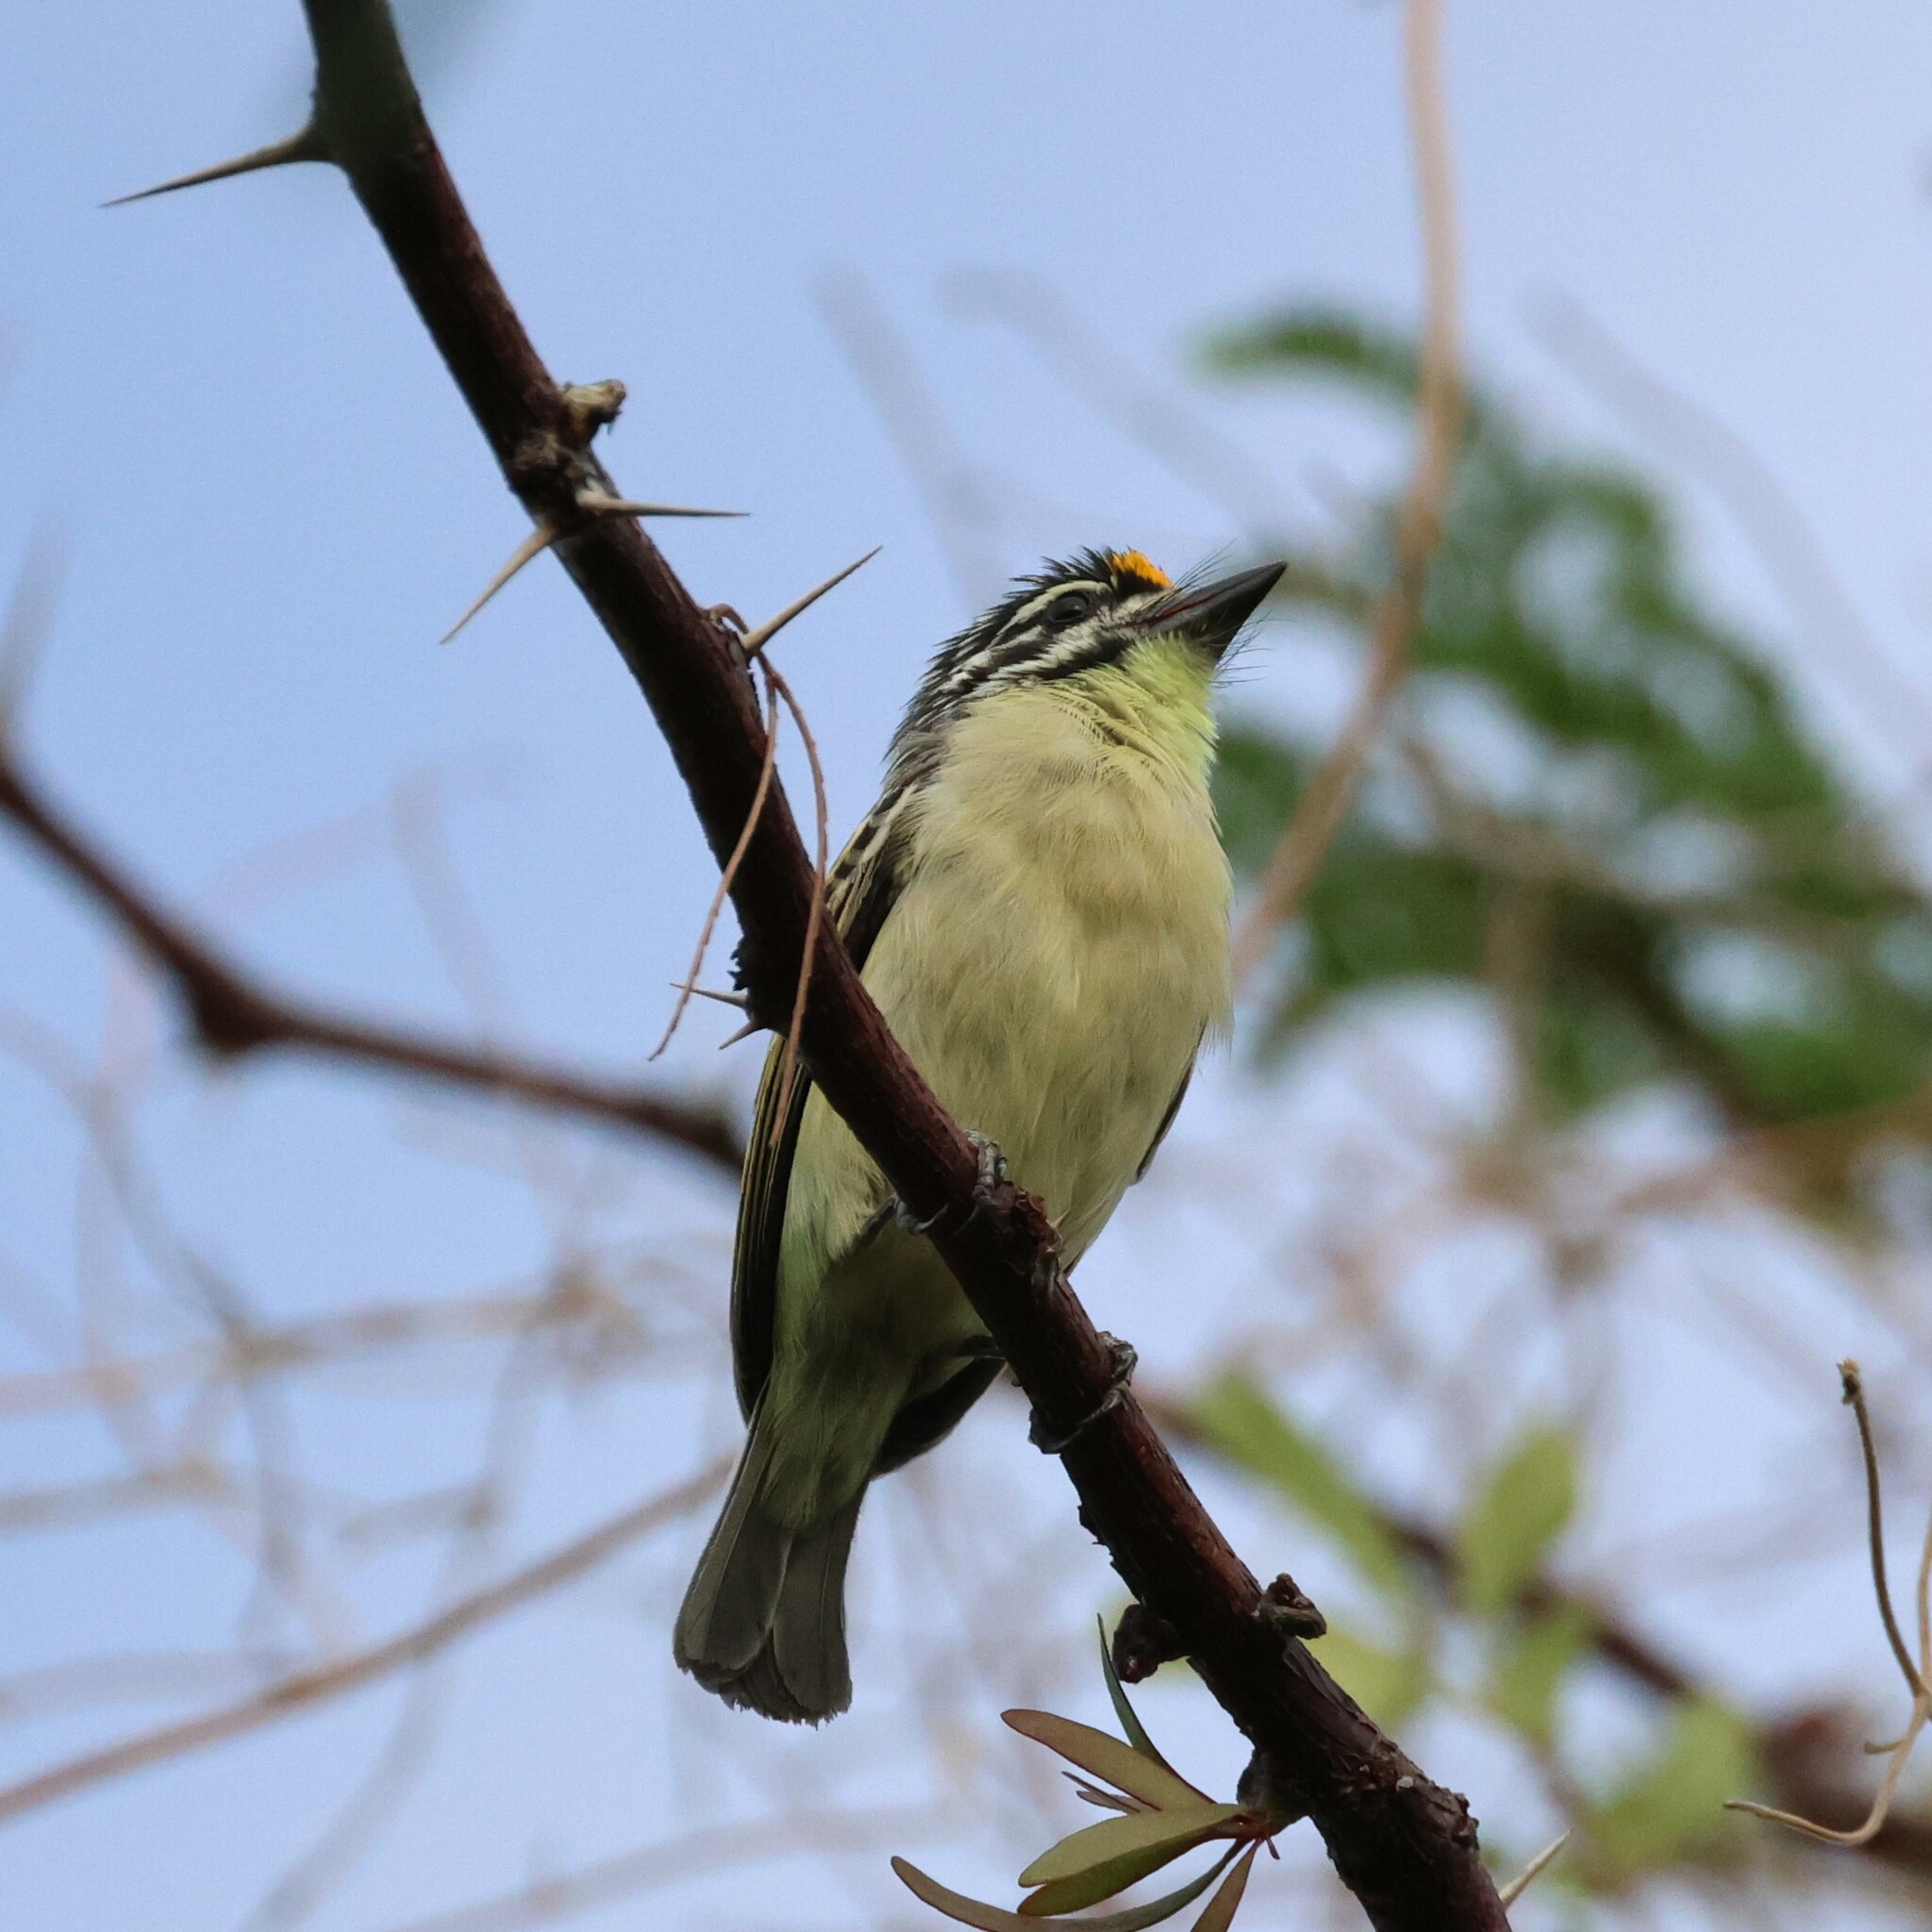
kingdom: Animalia
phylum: Chordata
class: Aves
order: Piciformes
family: Lybiidae
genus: Pogoniulus
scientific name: Pogoniulus chrysoconus
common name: Yellow-fronted tinkerbird
